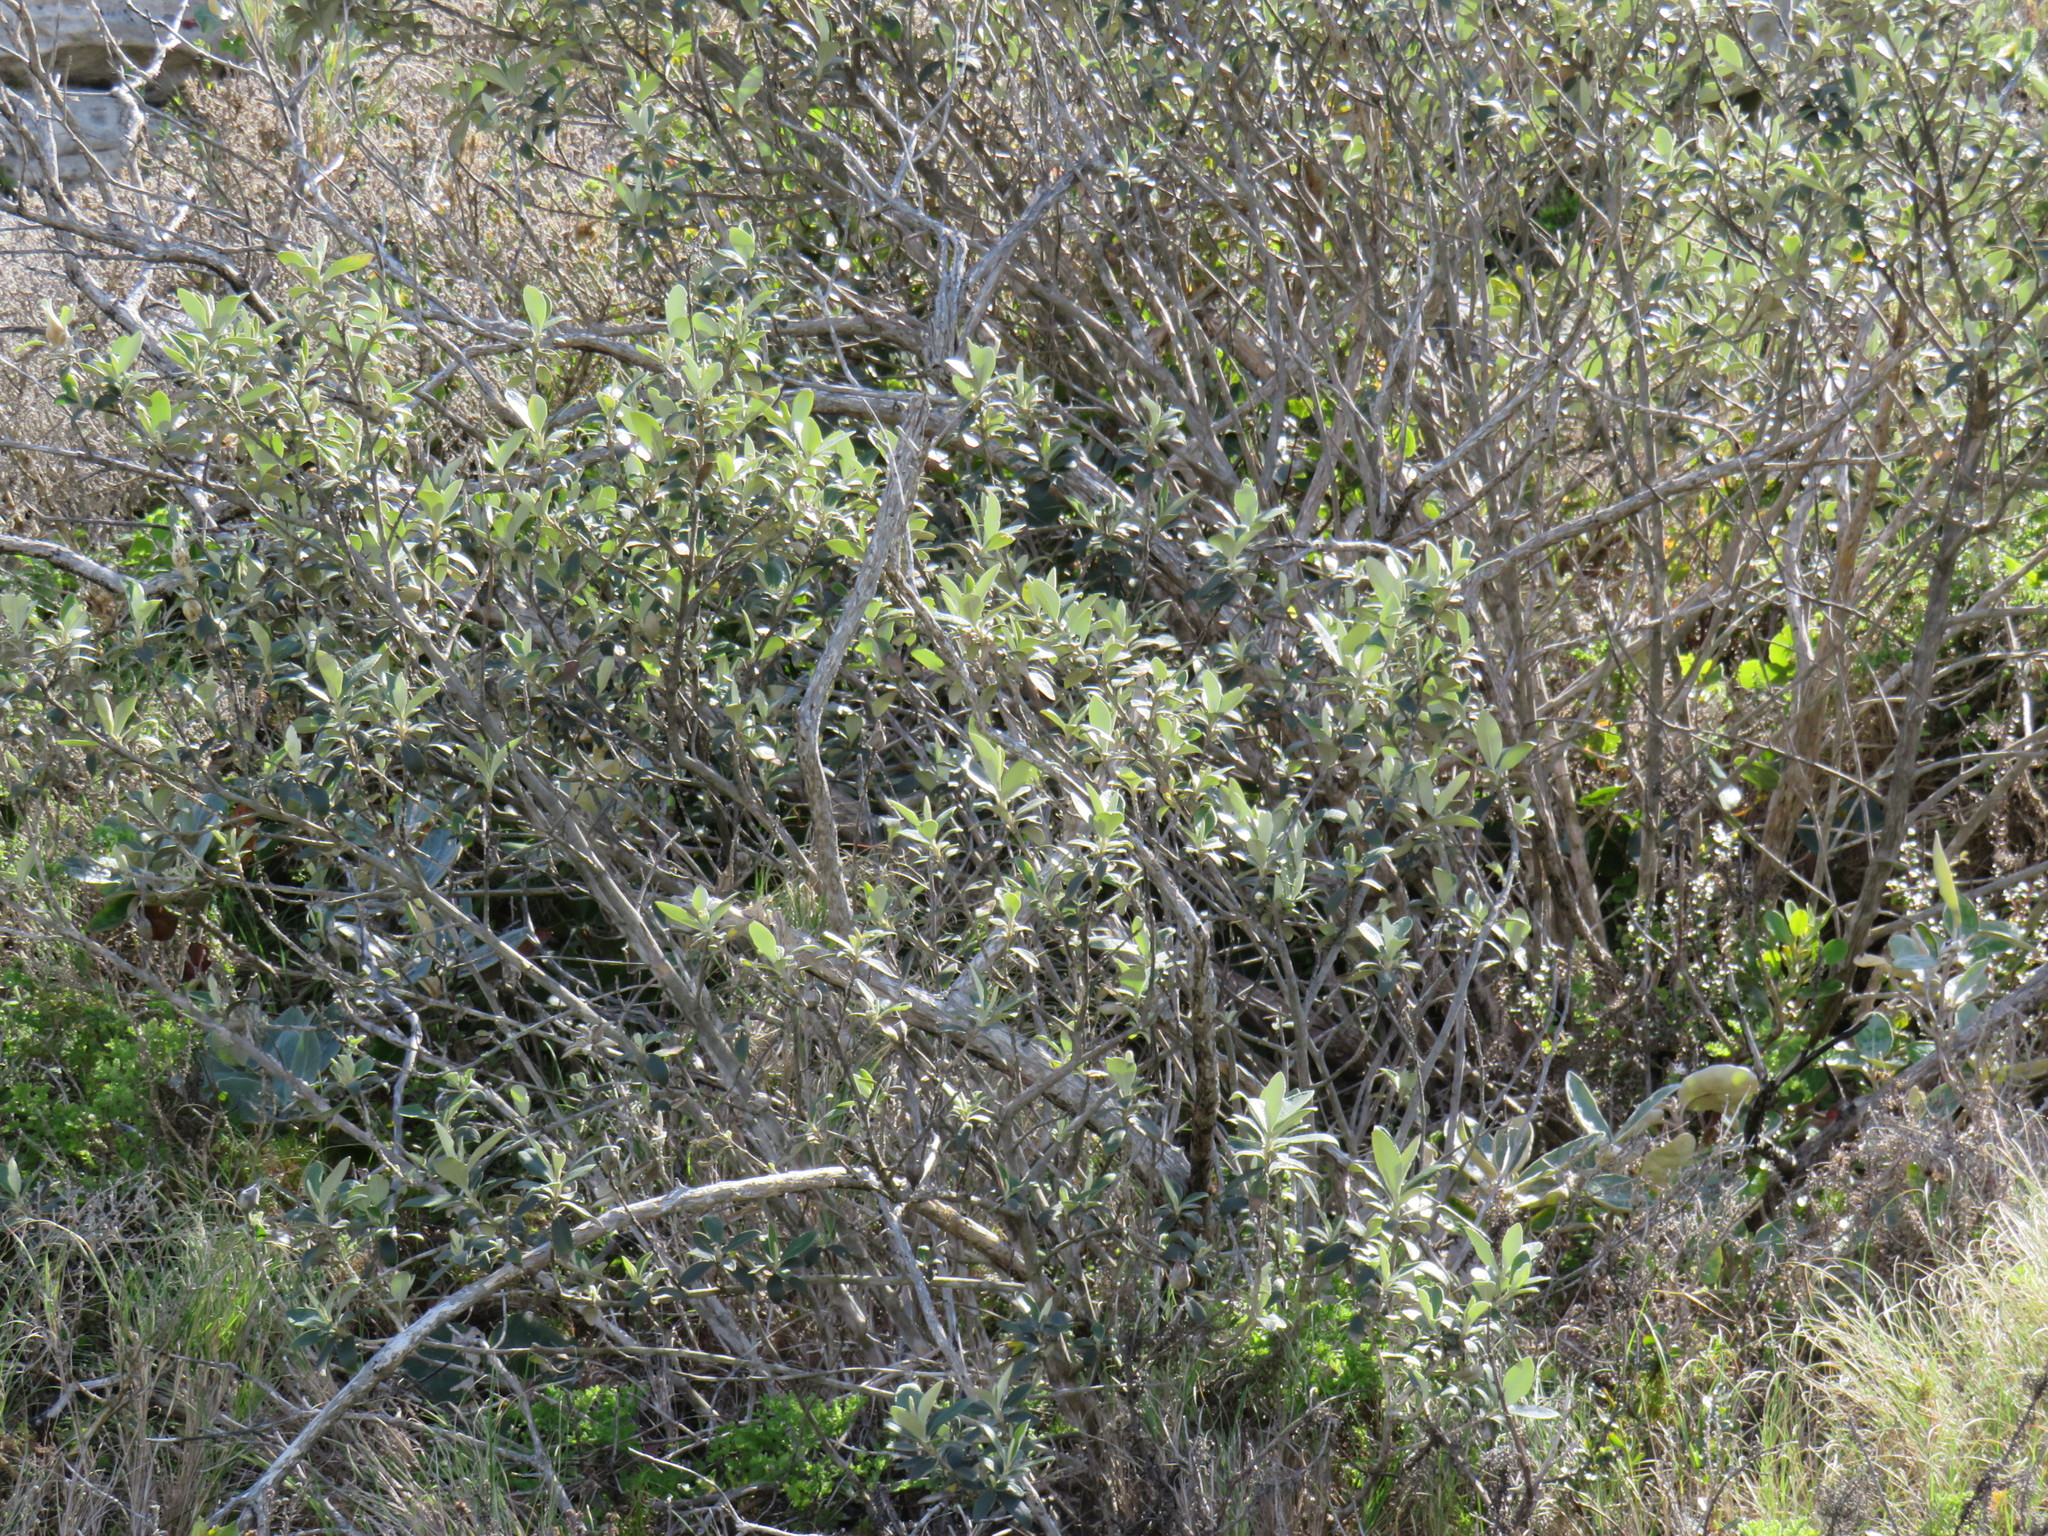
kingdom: Plantae
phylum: Tracheophyta
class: Magnoliopsida
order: Asterales
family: Asteraceae
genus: Tarchonanthus
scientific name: Tarchonanthus littoralis
